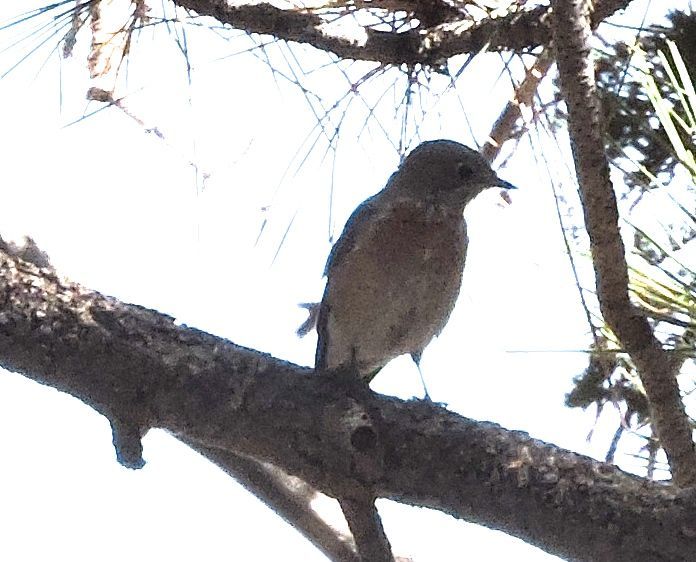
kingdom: Animalia
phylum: Chordata
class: Aves
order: Passeriformes
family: Turdidae
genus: Sialia
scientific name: Sialia mexicana
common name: Western bluebird
